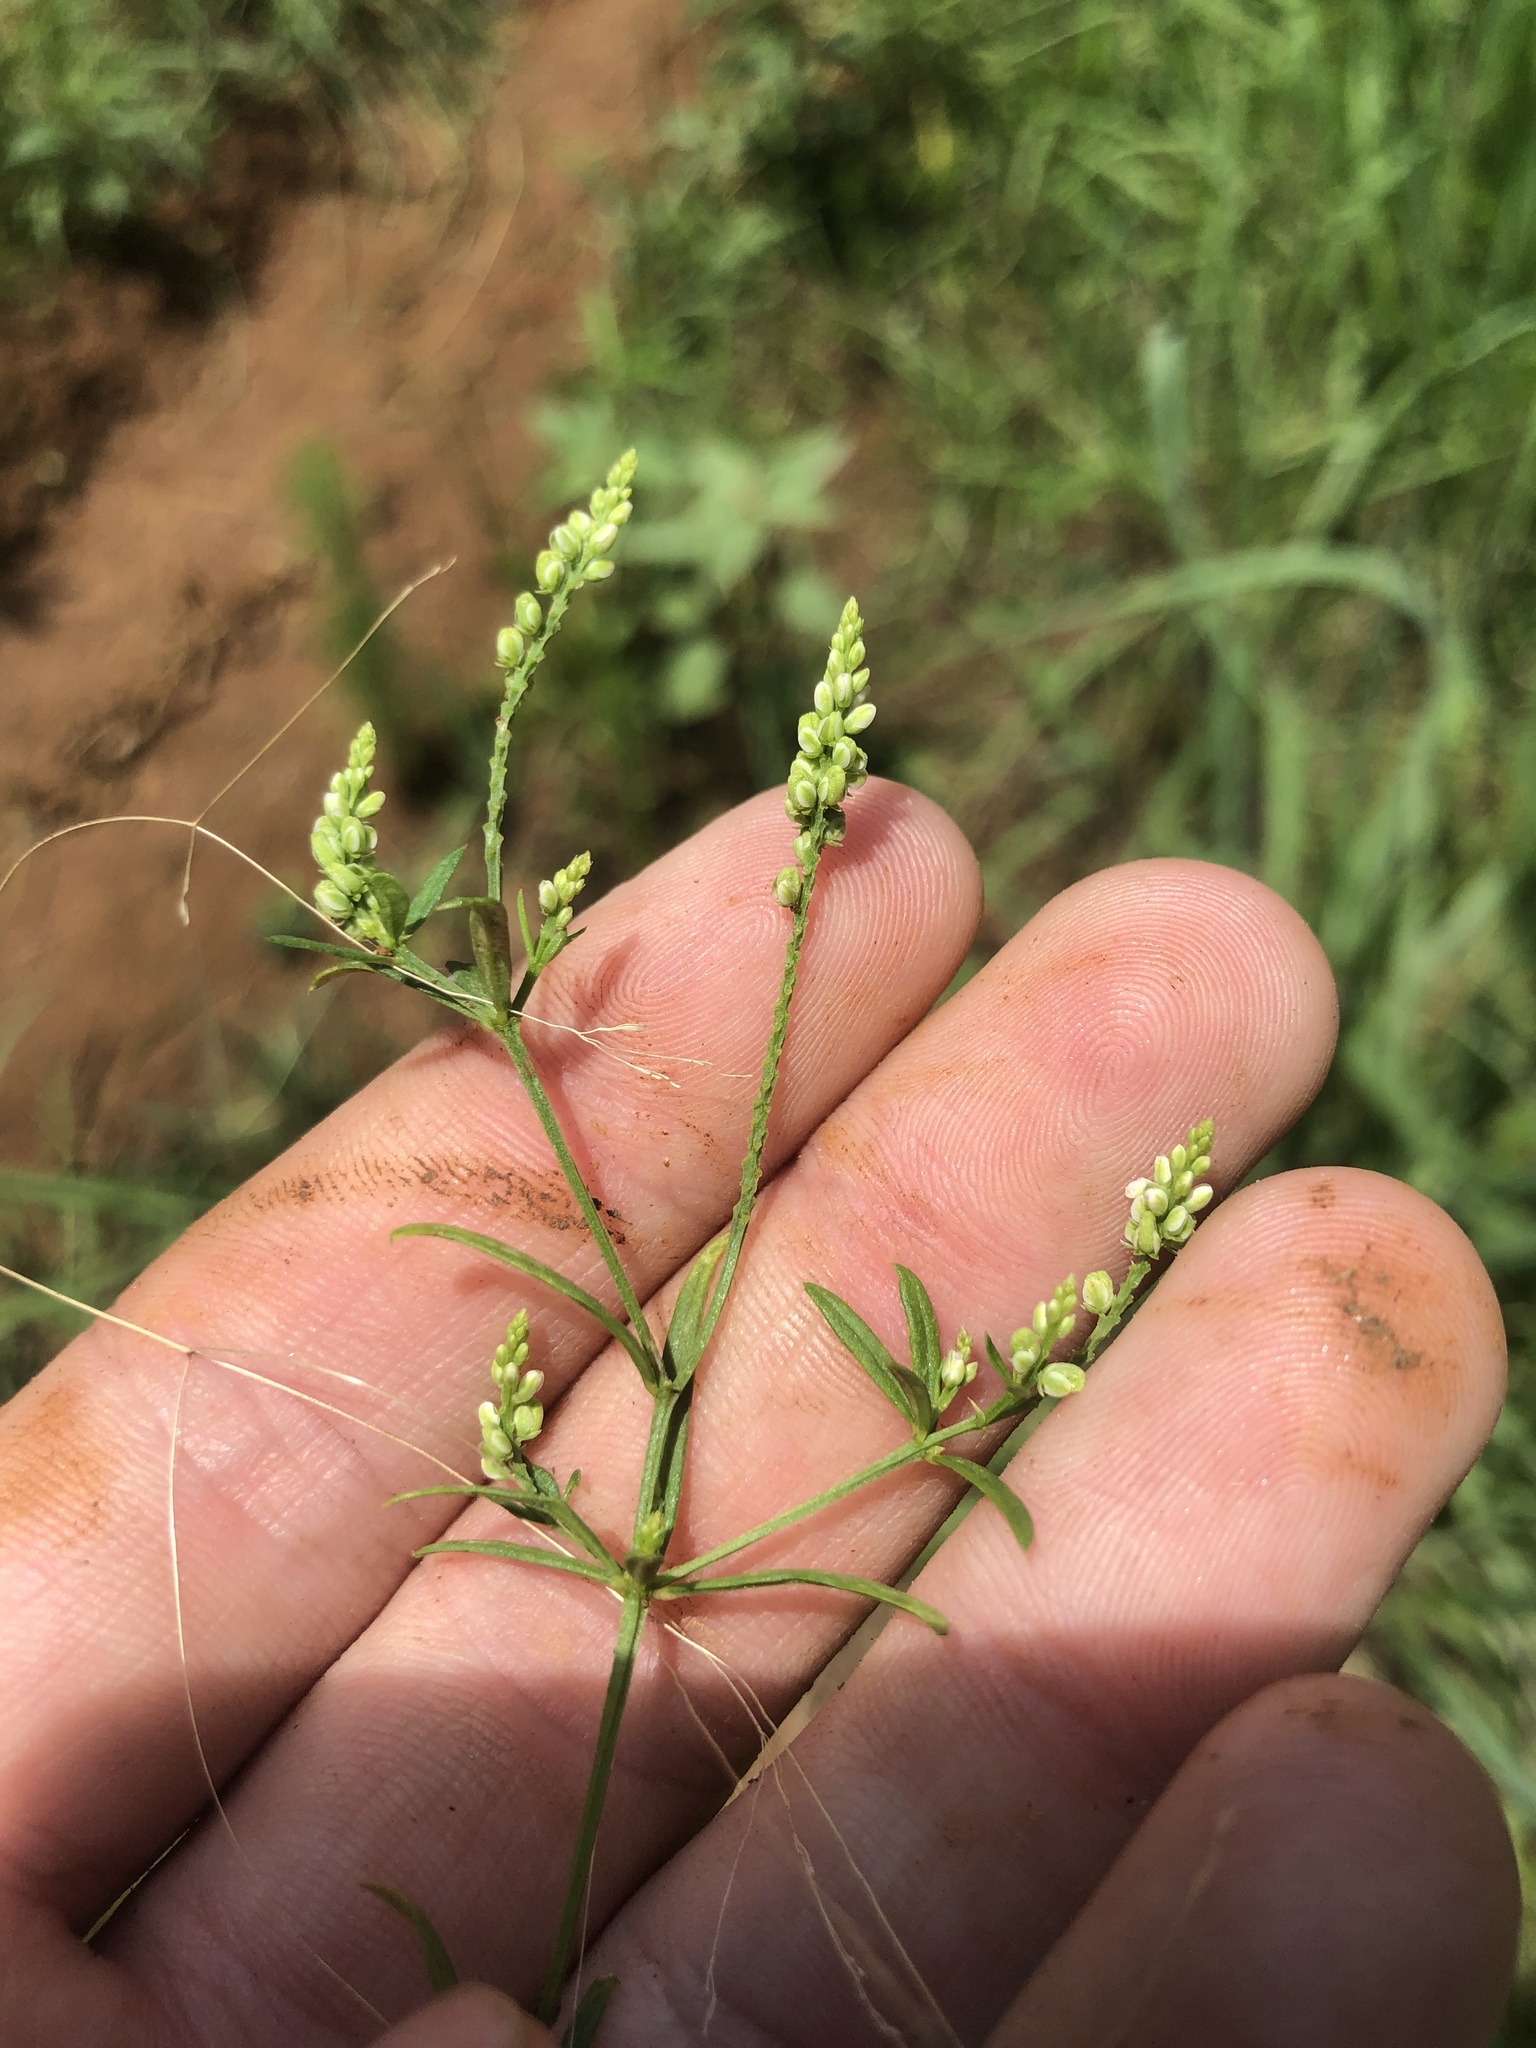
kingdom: Plantae
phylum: Tracheophyta
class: Magnoliopsida
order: Fabales
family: Polygalaceae
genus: Polygala
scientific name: Polygala verticillata
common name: Whorl milkwort
